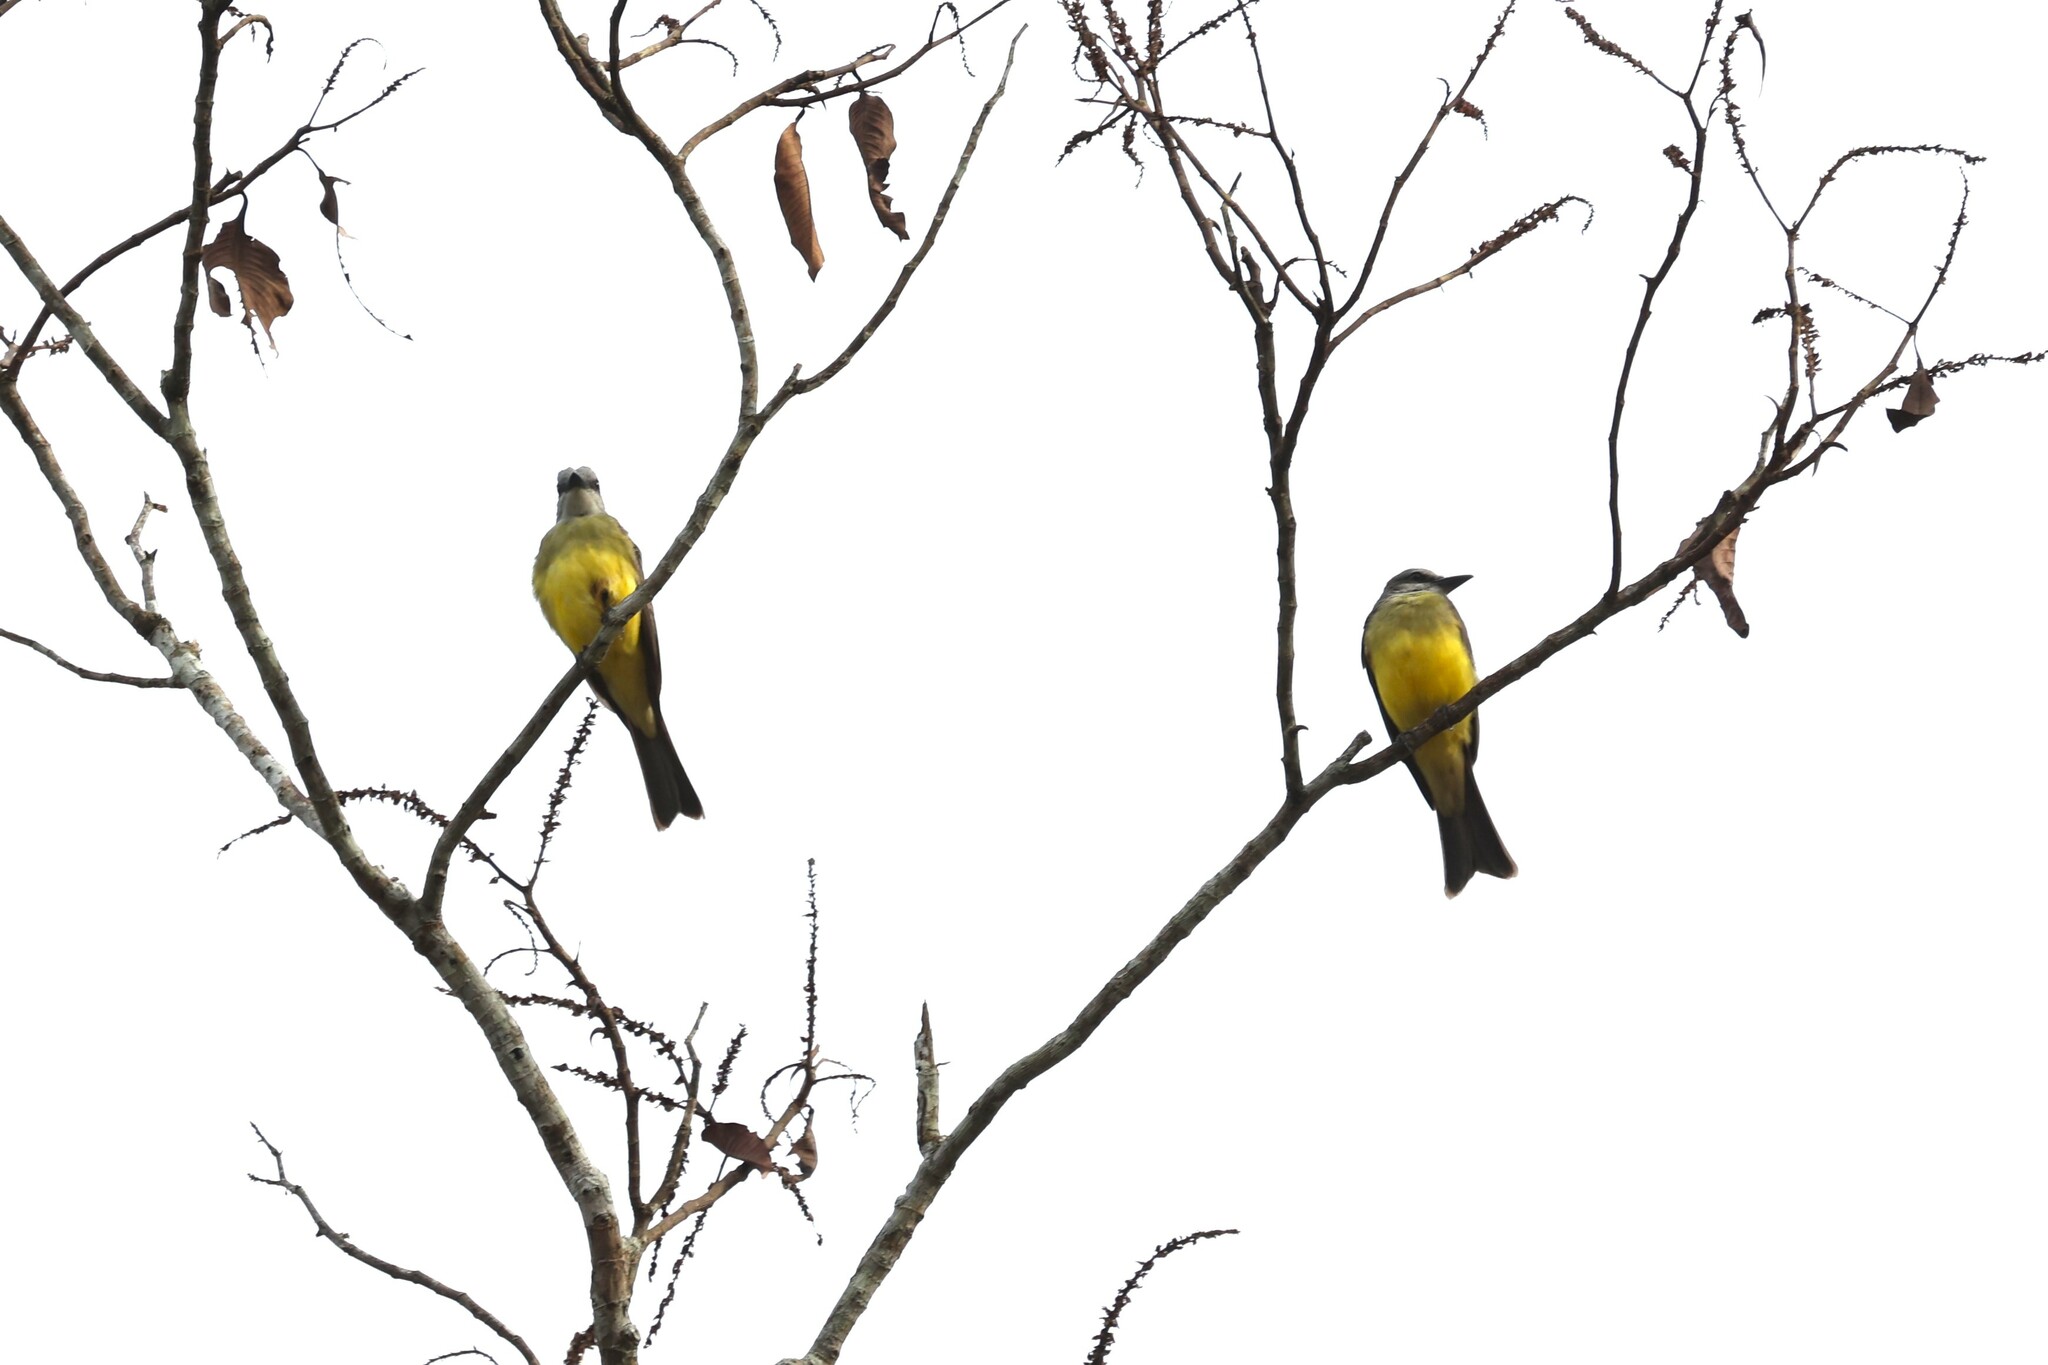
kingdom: Animalia
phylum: Chordata
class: Aves
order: Passeriformes
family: Tyrannidae
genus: Tyrannus
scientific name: Tyrannus melancholicus
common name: Tropical kingbird
